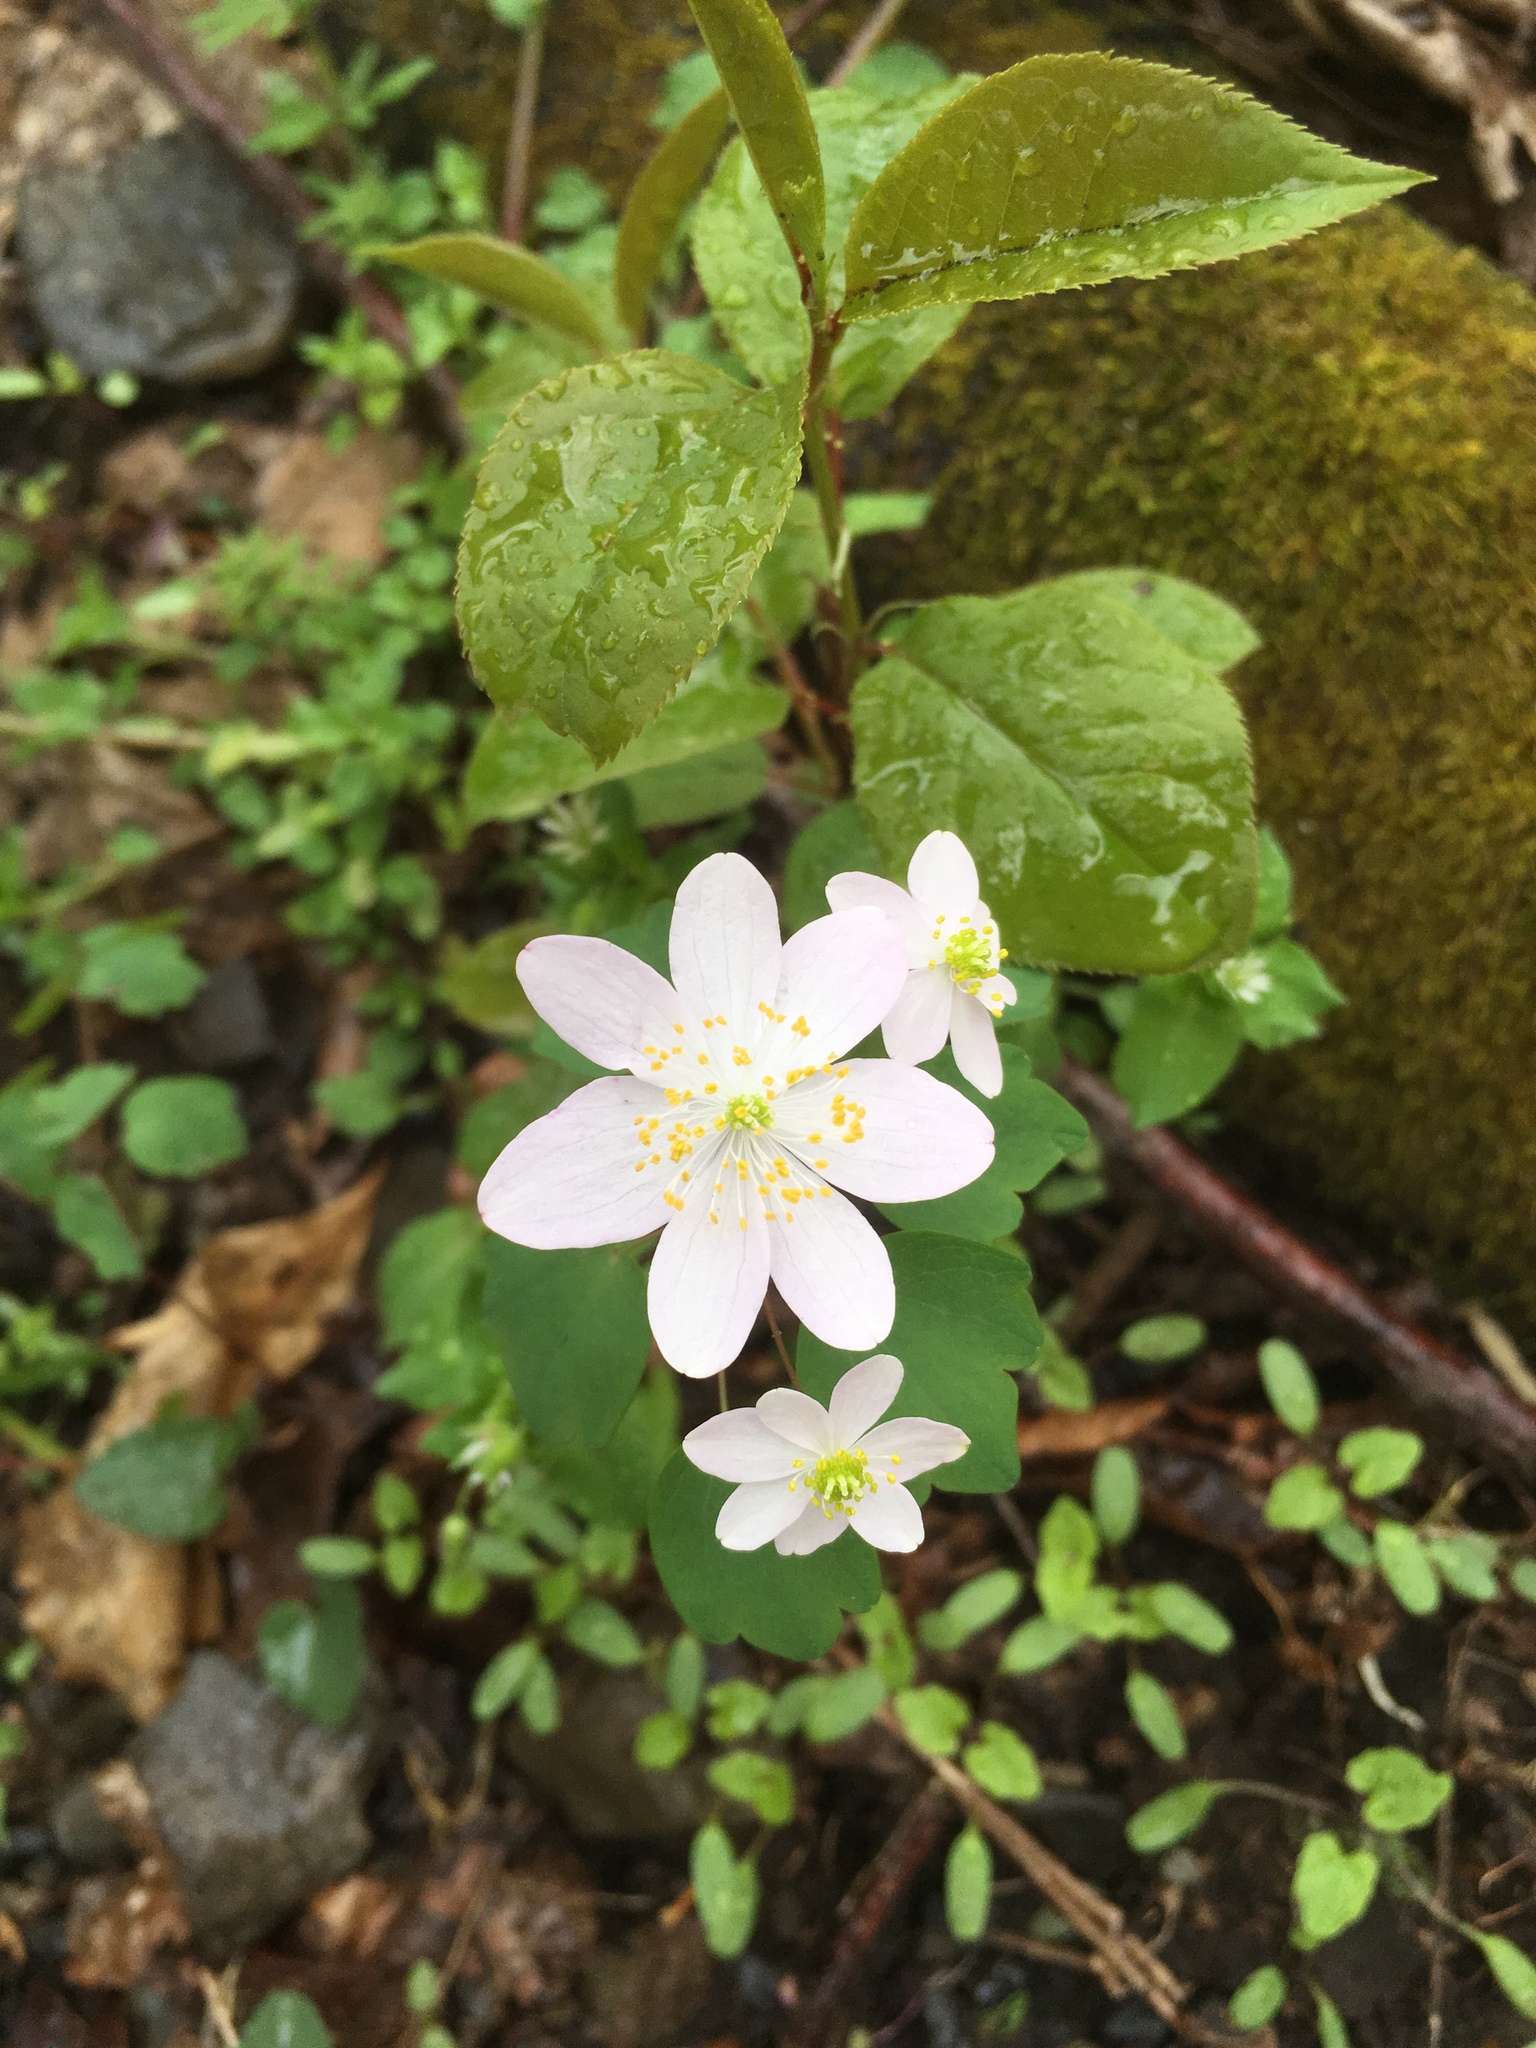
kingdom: Plantae
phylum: Tracheophyta
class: Magnoliopsida
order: Ranunculales
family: Ranunculaceae
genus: Thalictrum
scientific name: Thalictrum thalictroides
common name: Rue-anemone
